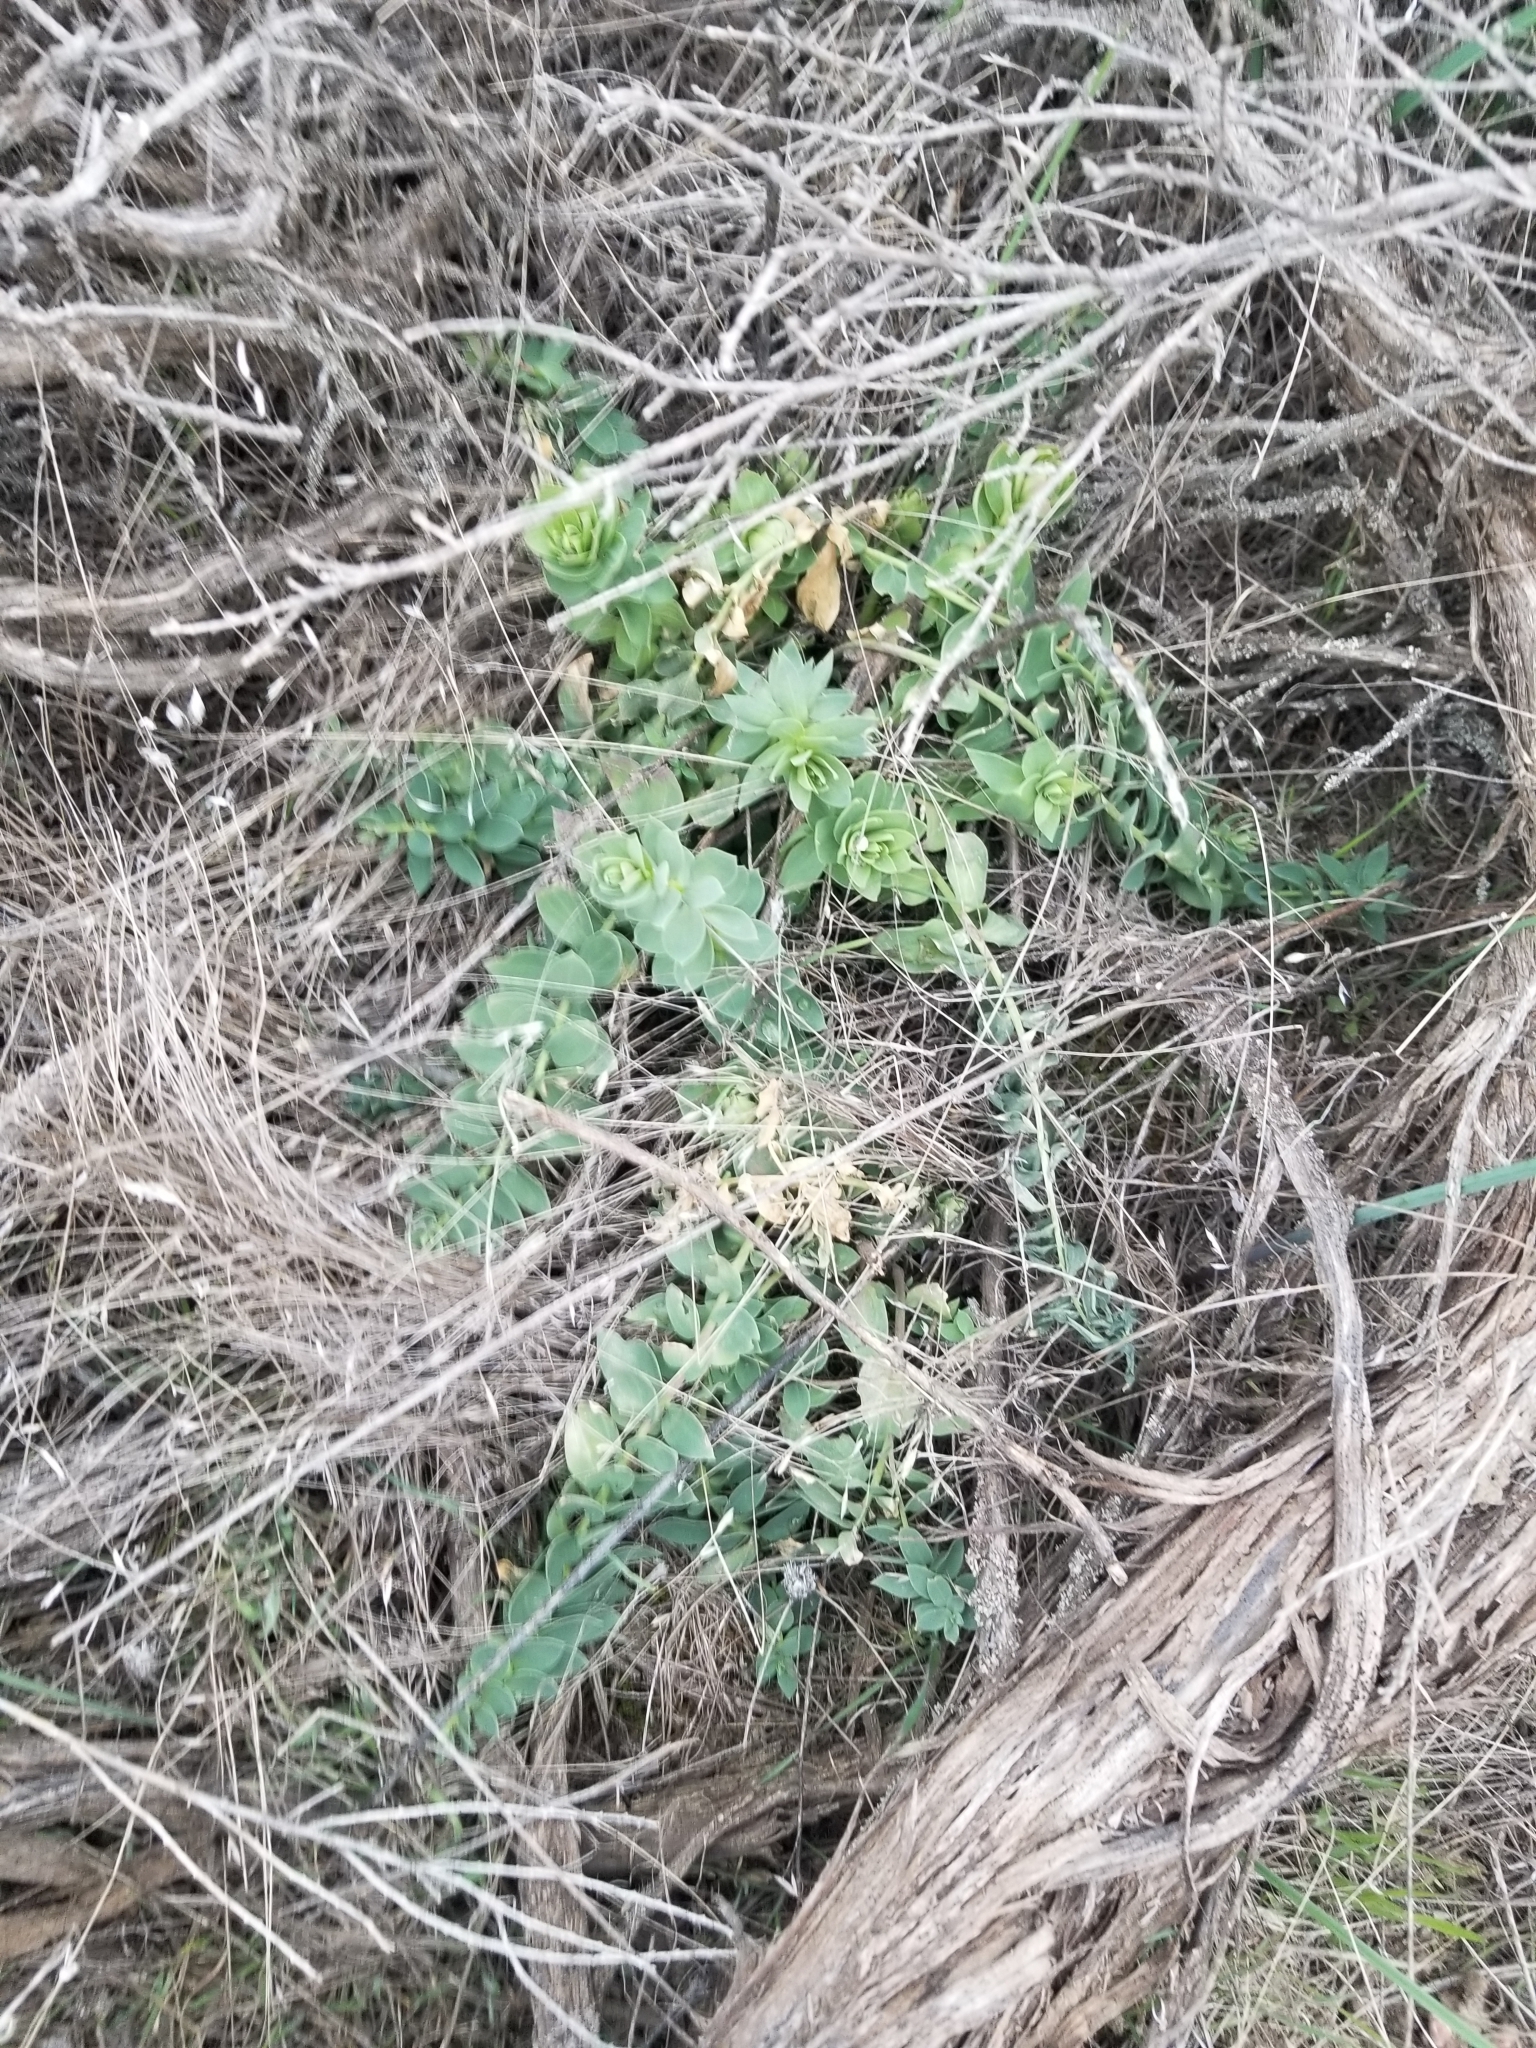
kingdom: Plantae
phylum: Tracheophyta
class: Magnoliopsida
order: Lamiales
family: Plantaginaceae
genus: Linaria
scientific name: Linaria dalmatica
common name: Dalmatian toadflax
